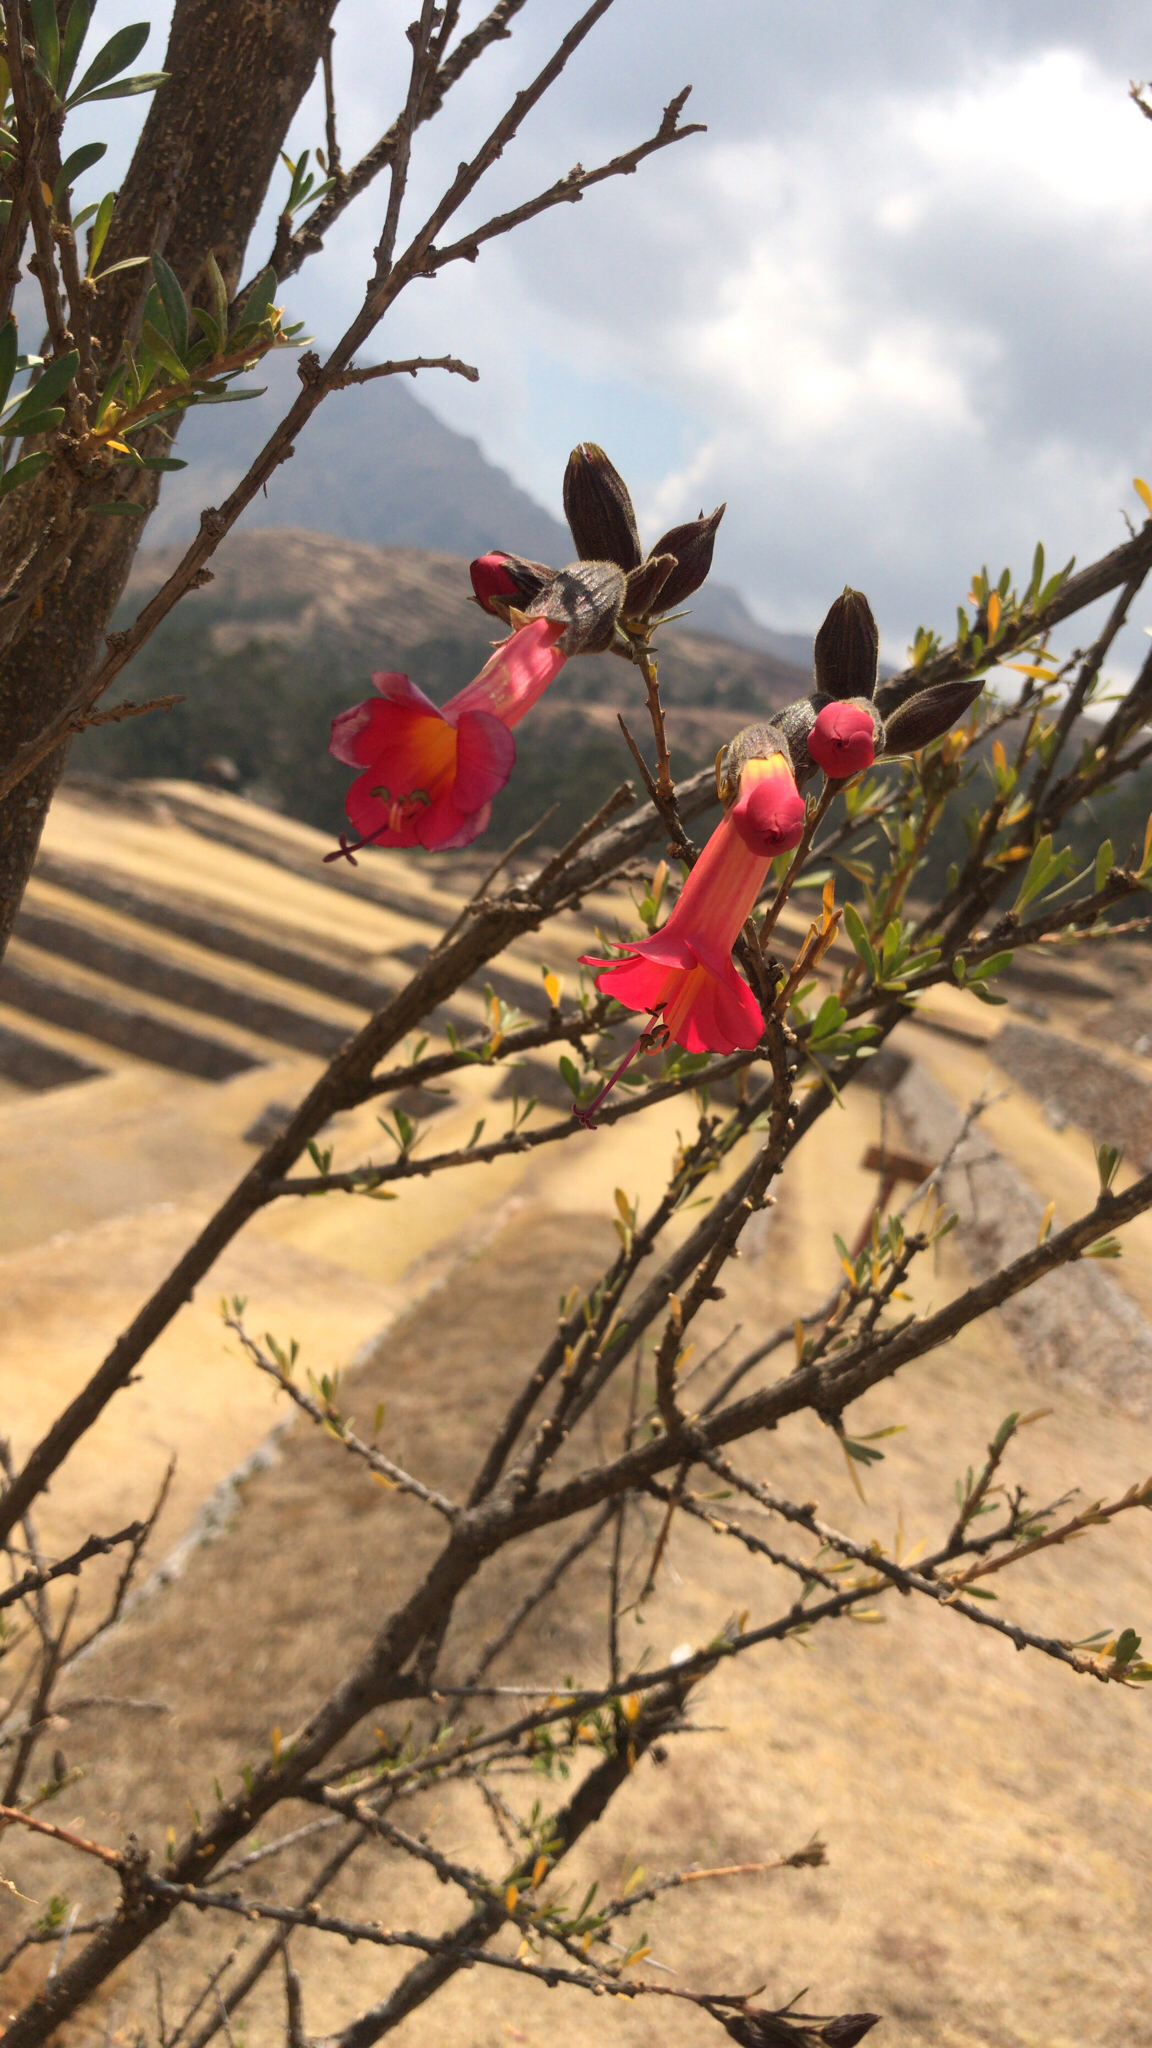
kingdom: Plantae
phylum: Tracheophyta
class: Magnoliopsida
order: Ericales
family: Polemoniaceae
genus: Cantua
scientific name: Cantua bicolor
